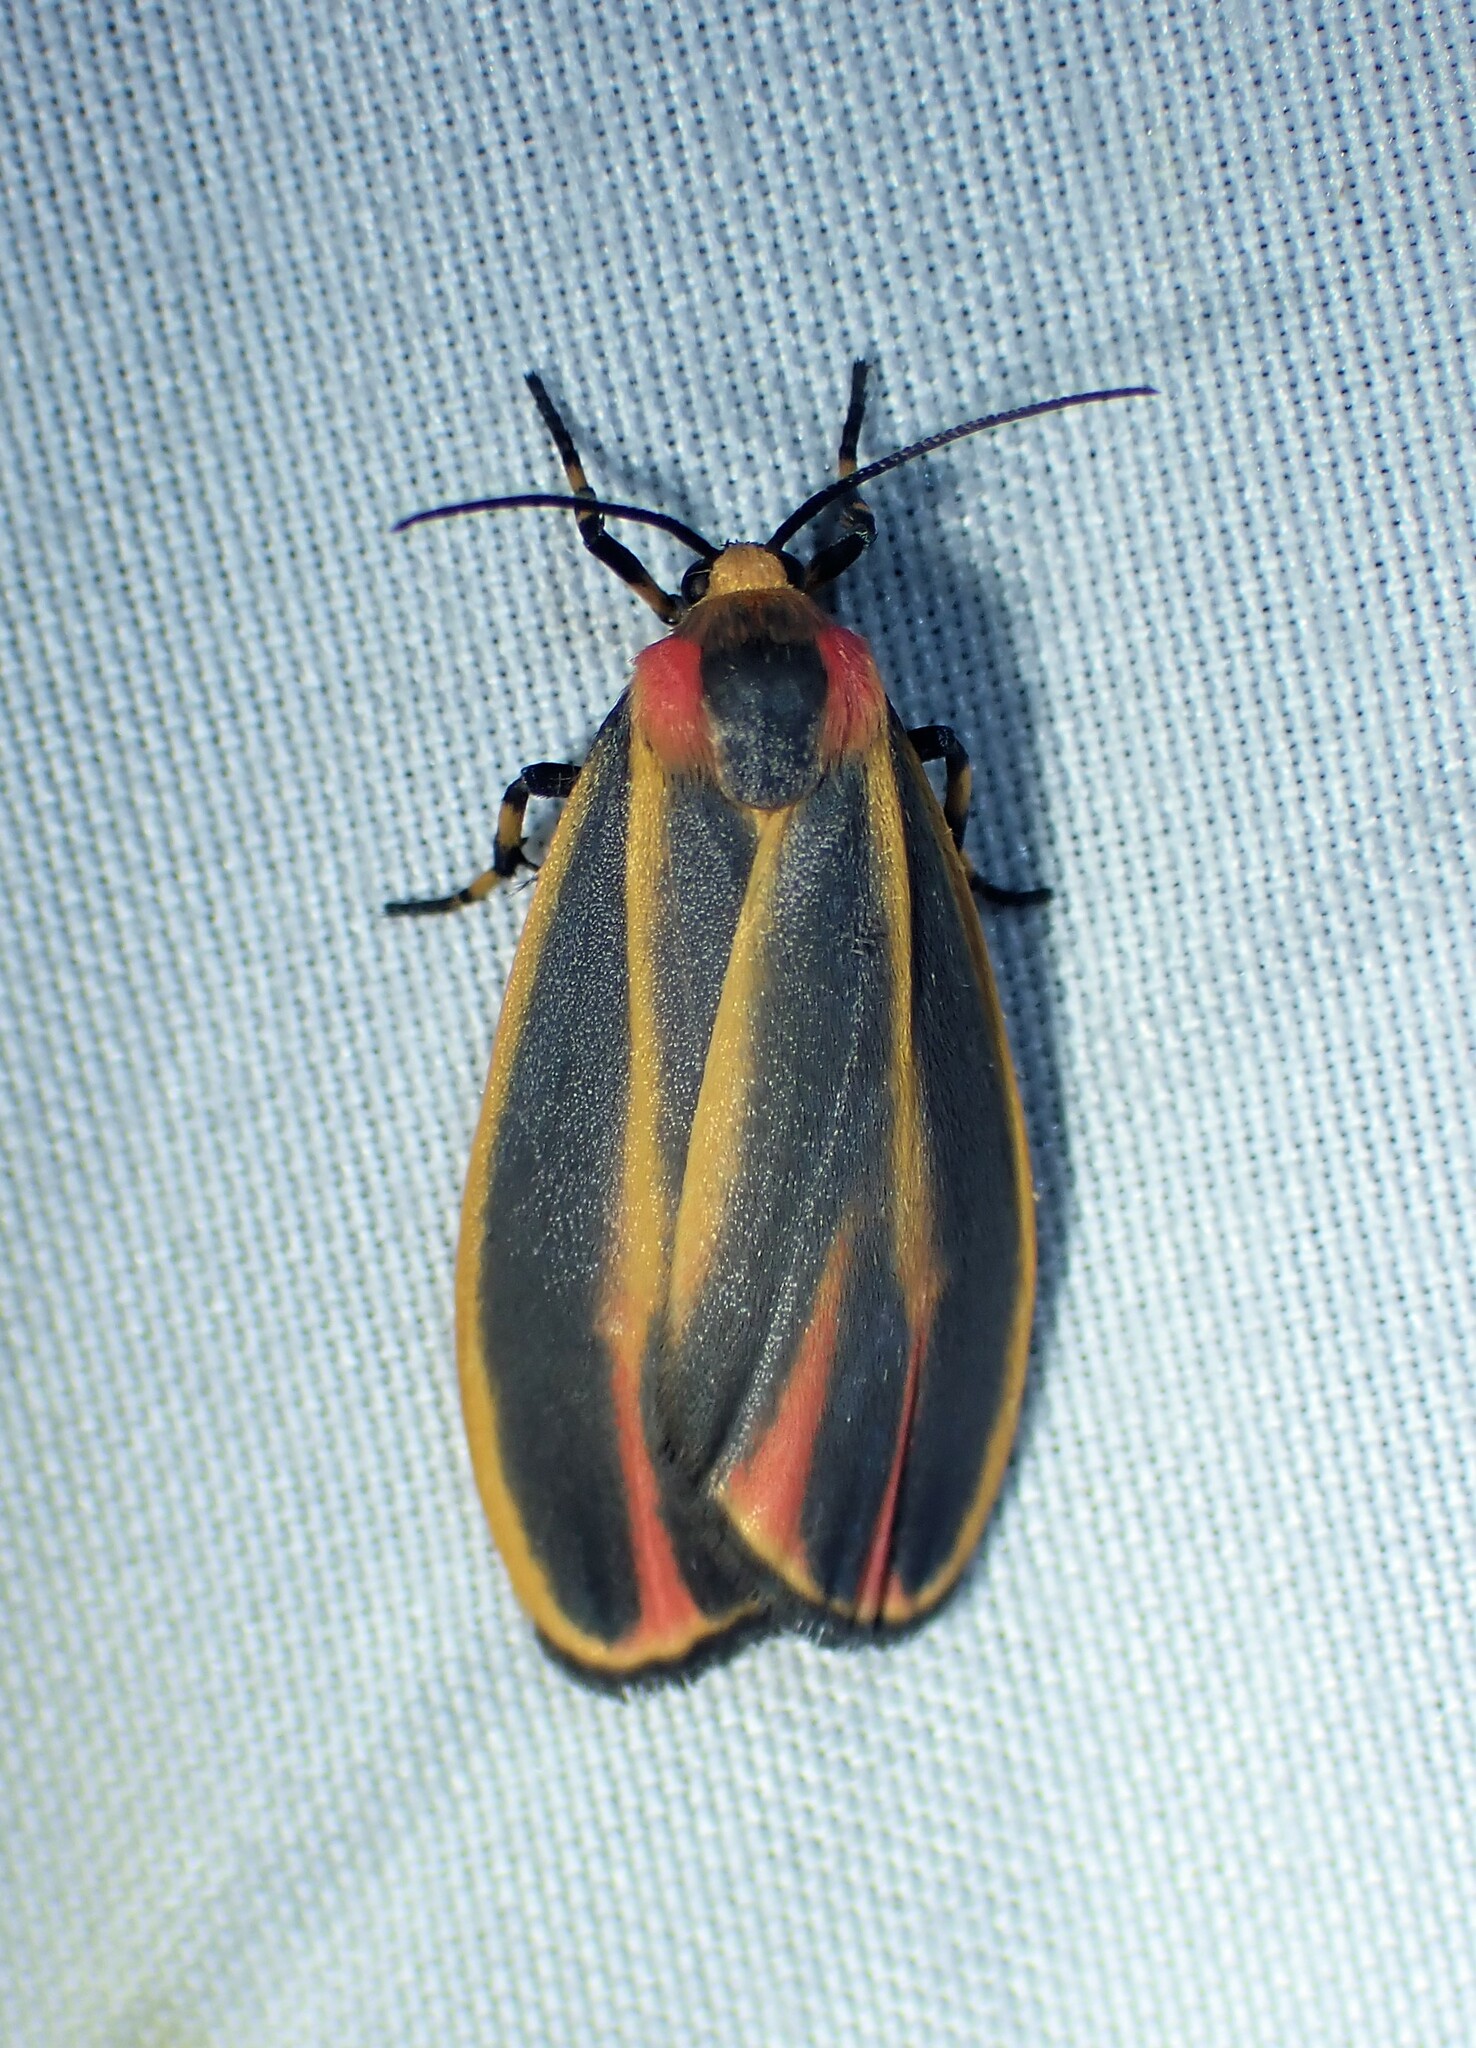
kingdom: Animalia
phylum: Arthropoda
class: Insecta
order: Lepidoptera
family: Erebidae
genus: Hypoprepia
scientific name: Hypoprepia fucosa
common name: Painted lichen moth
